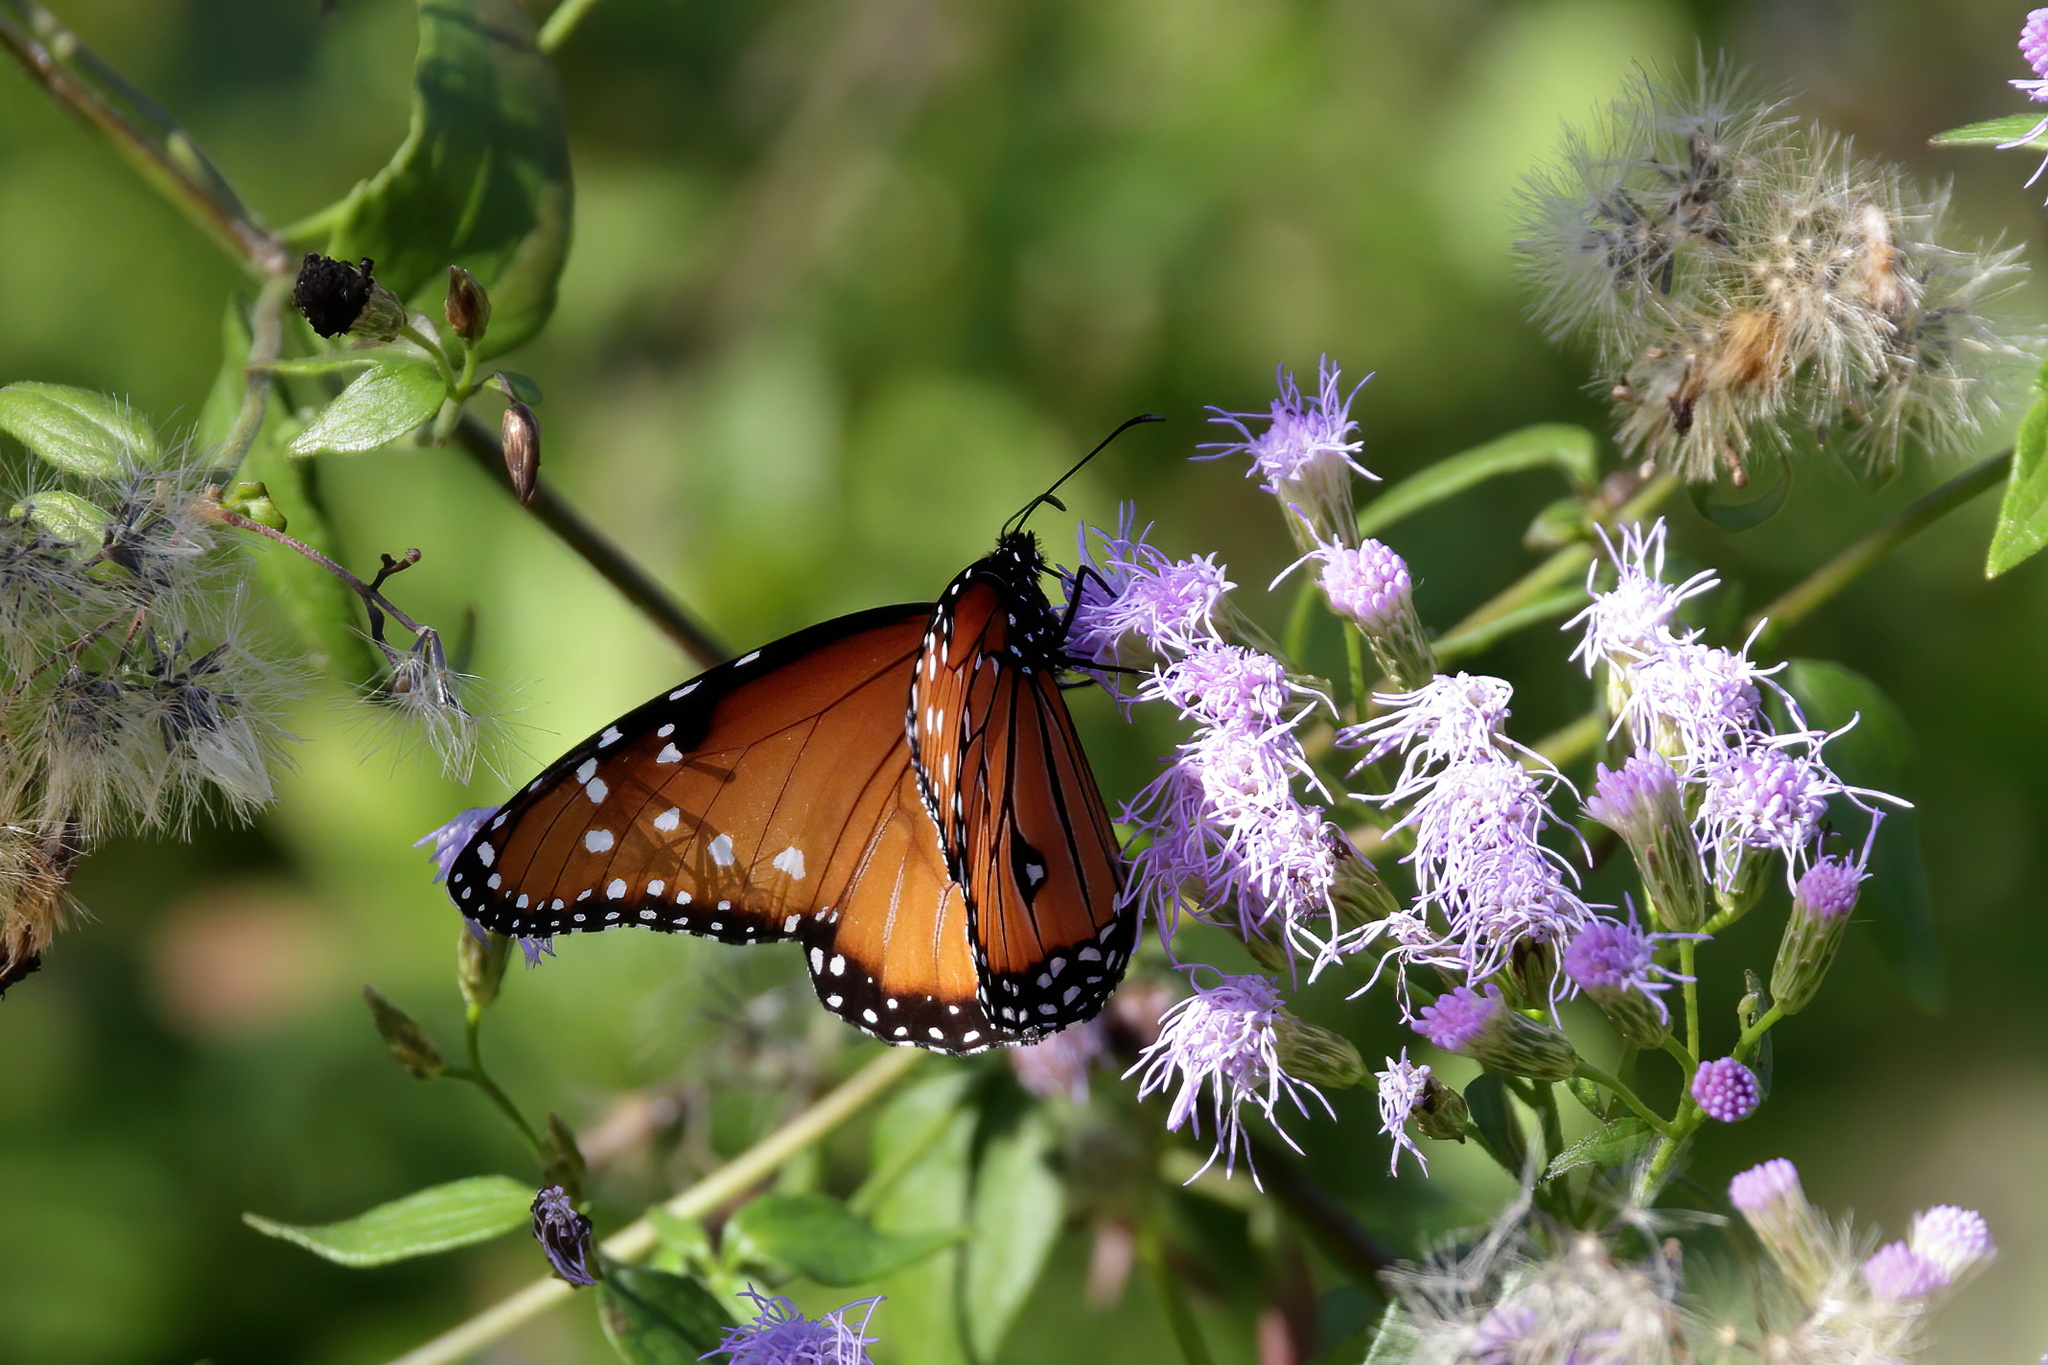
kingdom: Animalia
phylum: Arthropoda
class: Insecta
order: Lepidoptera
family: Nymphalidae
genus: Danaus
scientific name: Danaus gilippus
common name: Queen
